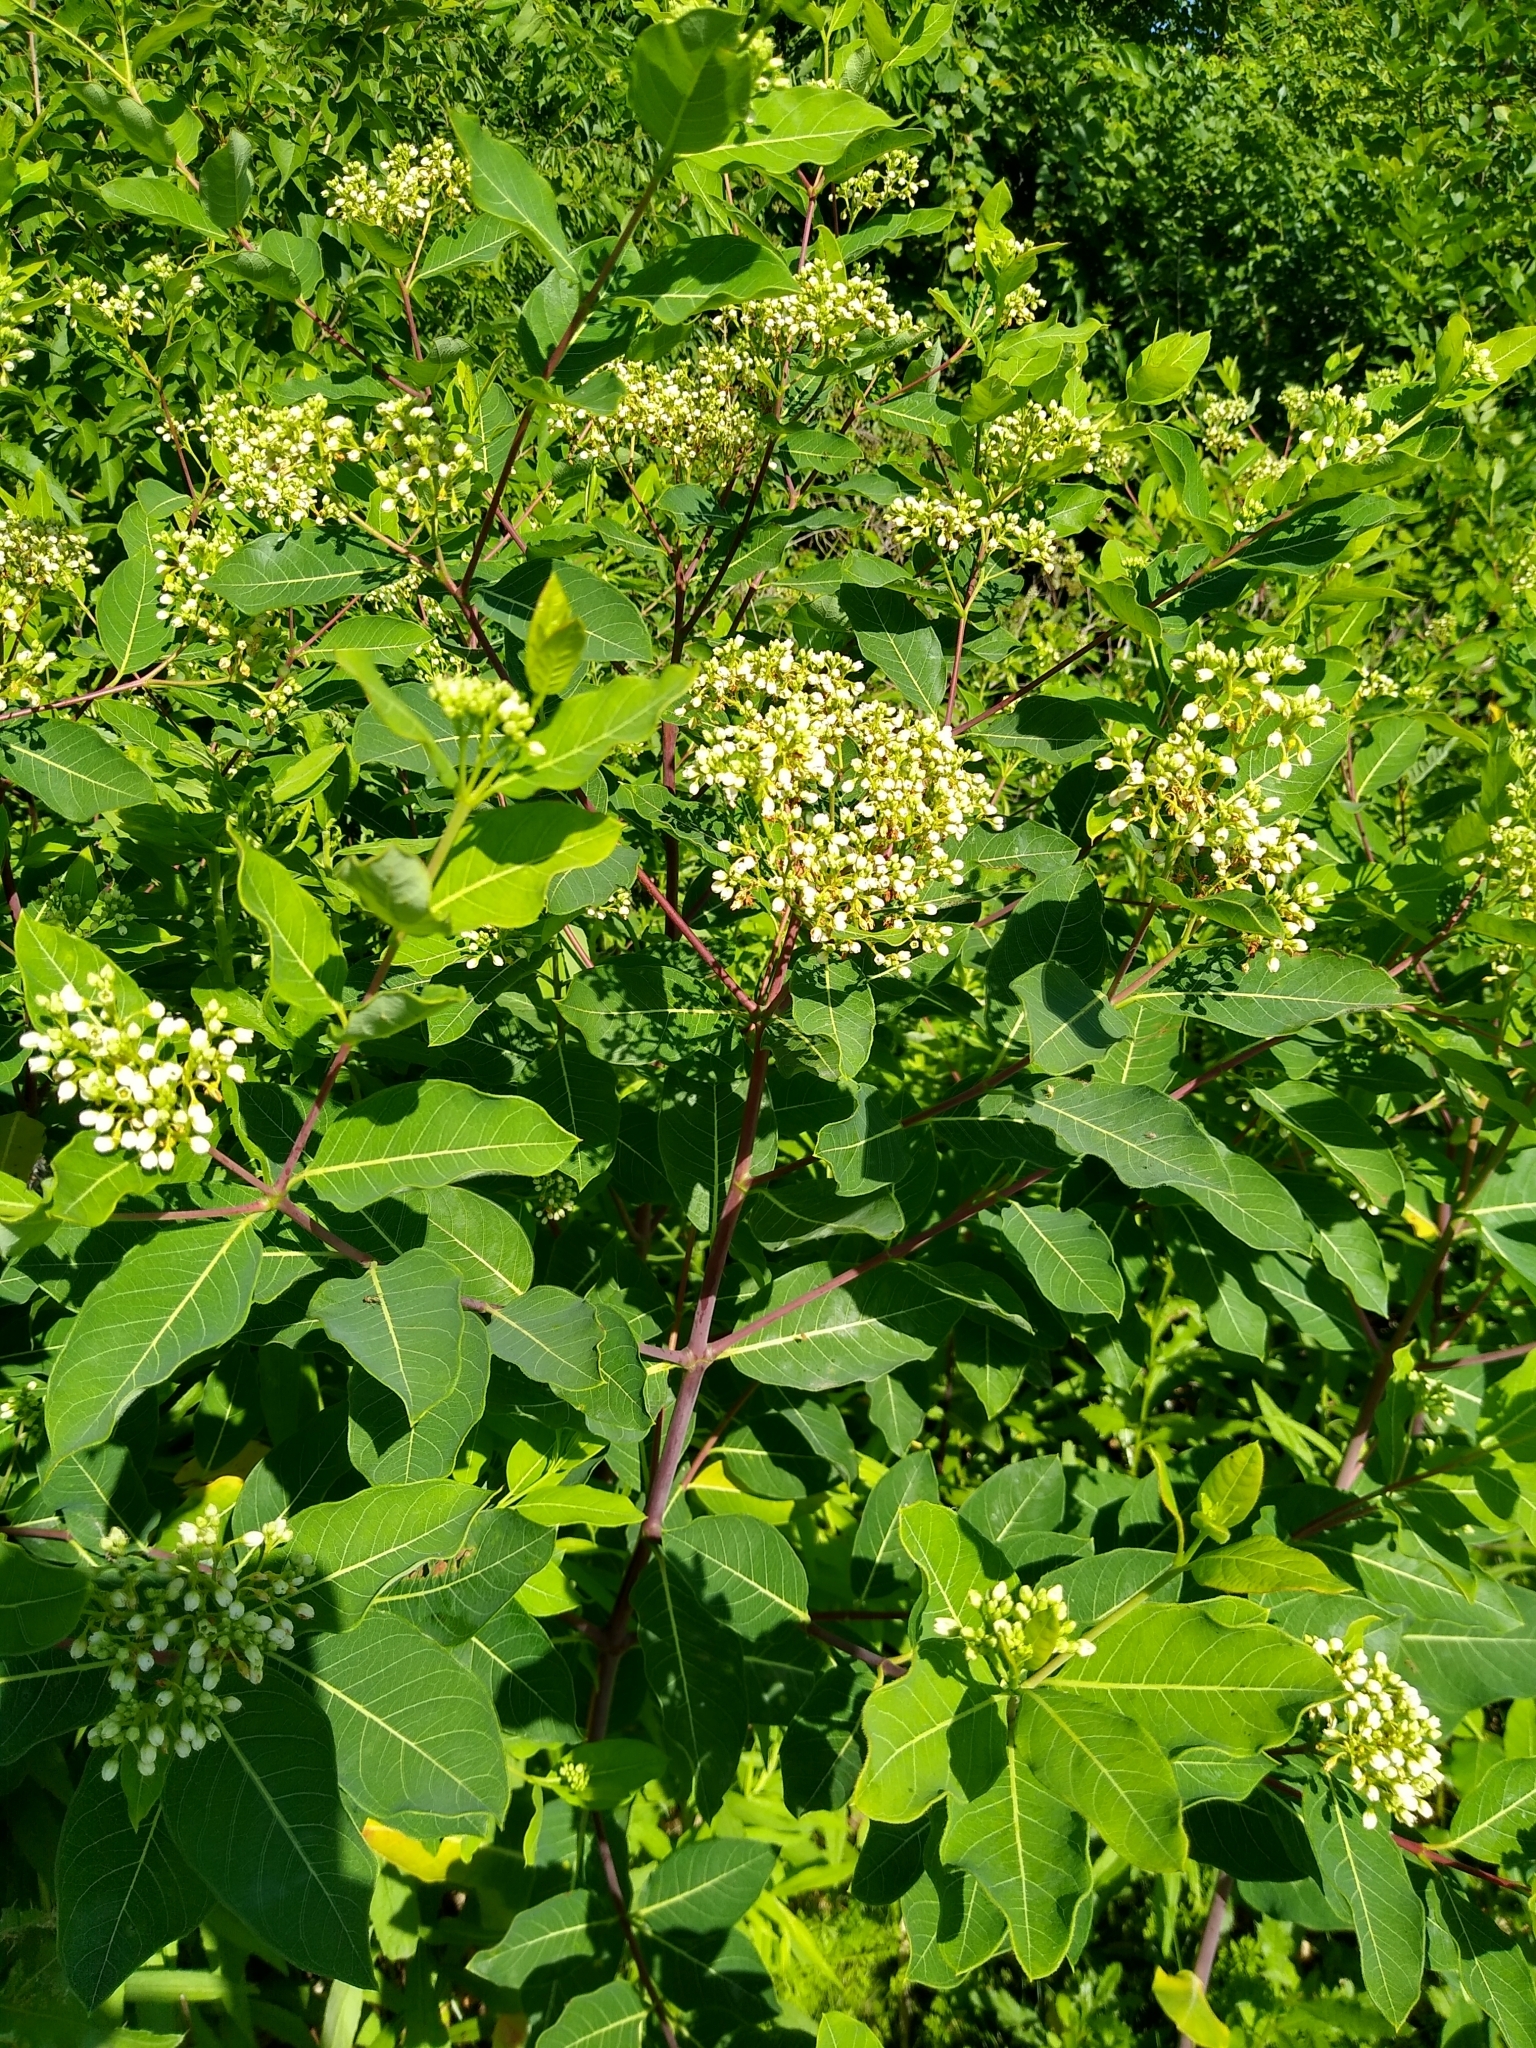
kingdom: Plantae
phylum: Tracheophyta
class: Magnoliopsida
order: Gentianales
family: Apocynaceae
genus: Apocynum
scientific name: Apocynum cannabinum
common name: Hemp dogbane
